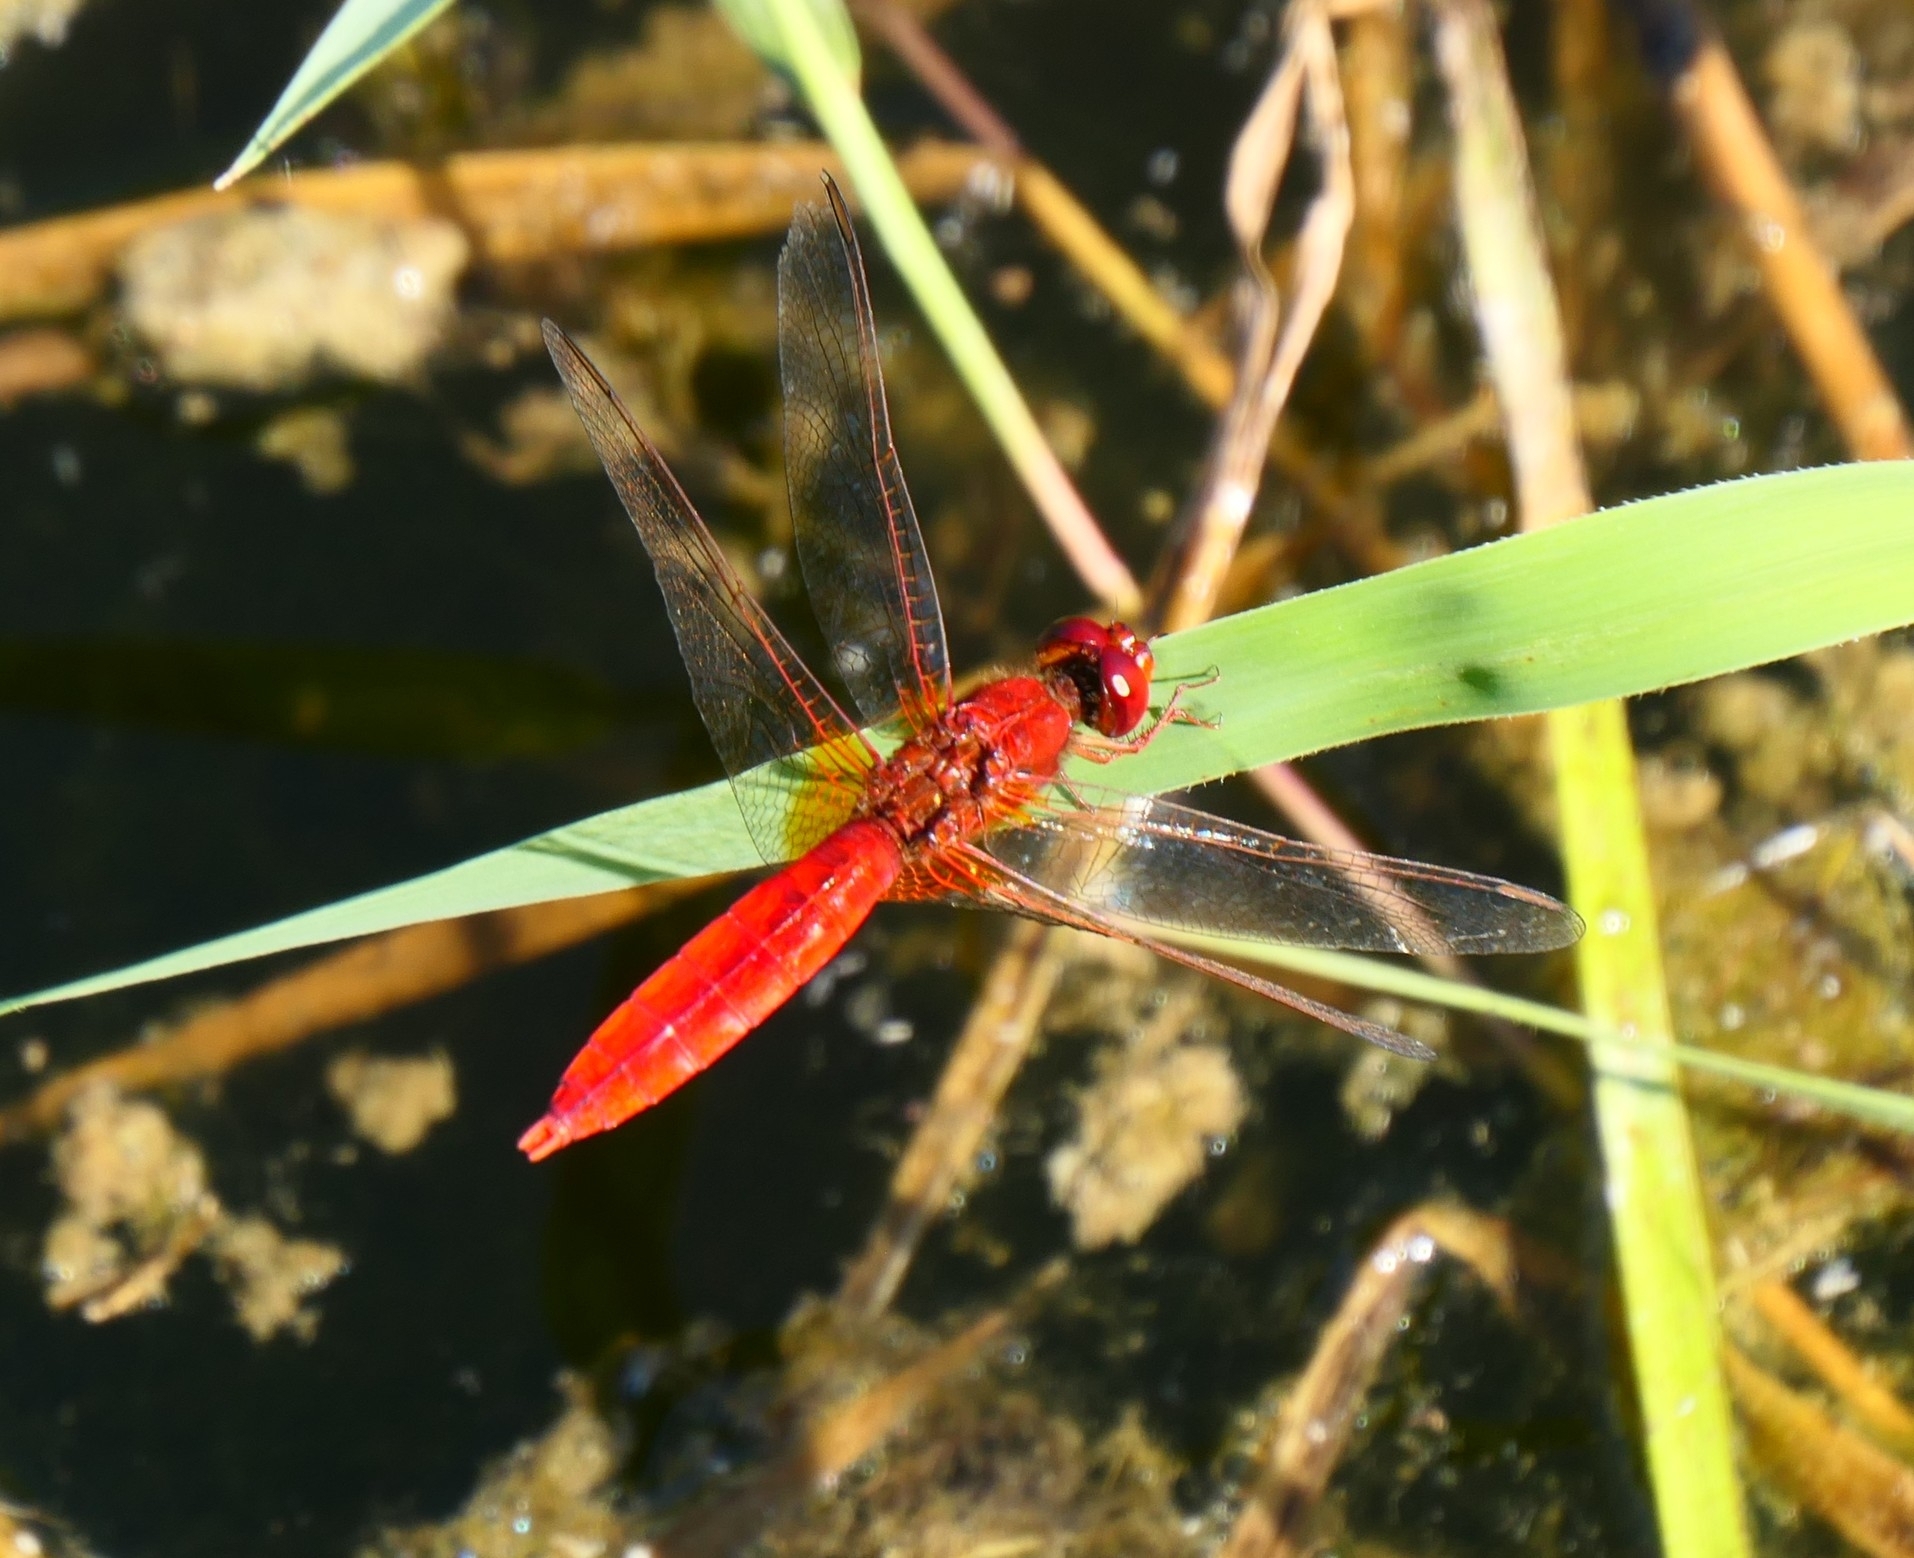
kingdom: Animalia
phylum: Arthropoda
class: Insecta
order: Odonata
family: Libellulidae
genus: Crocothemis
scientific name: Crocothemis erythraea
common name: Scarlet dragonfly
